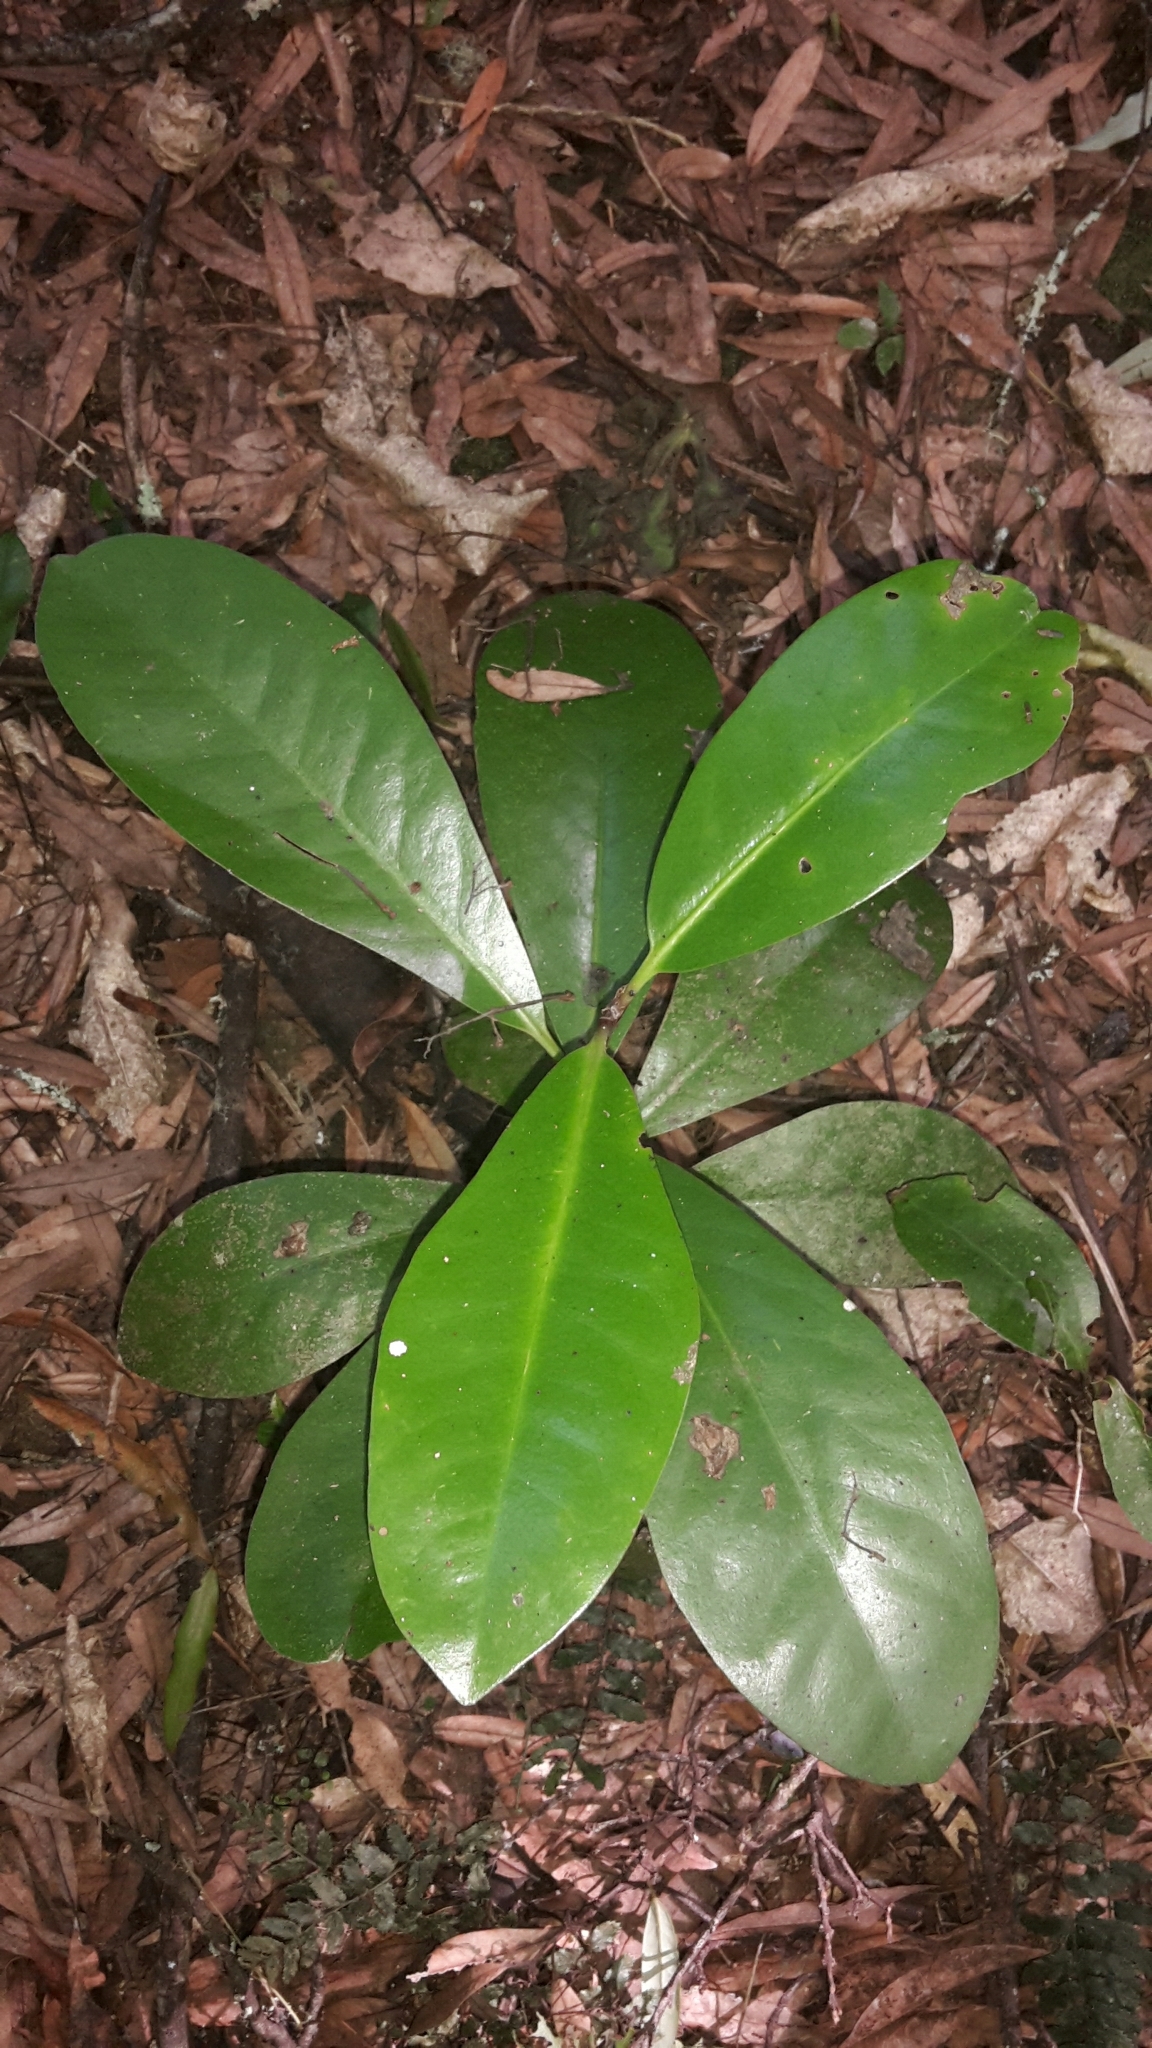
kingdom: Plantae
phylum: Tracheophyta
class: Magnoliopsida
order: Cucurbitales
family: Corynocarpaceae
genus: Corynocarpus
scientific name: Corynocarpus laevigatus
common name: New zealand laurel
